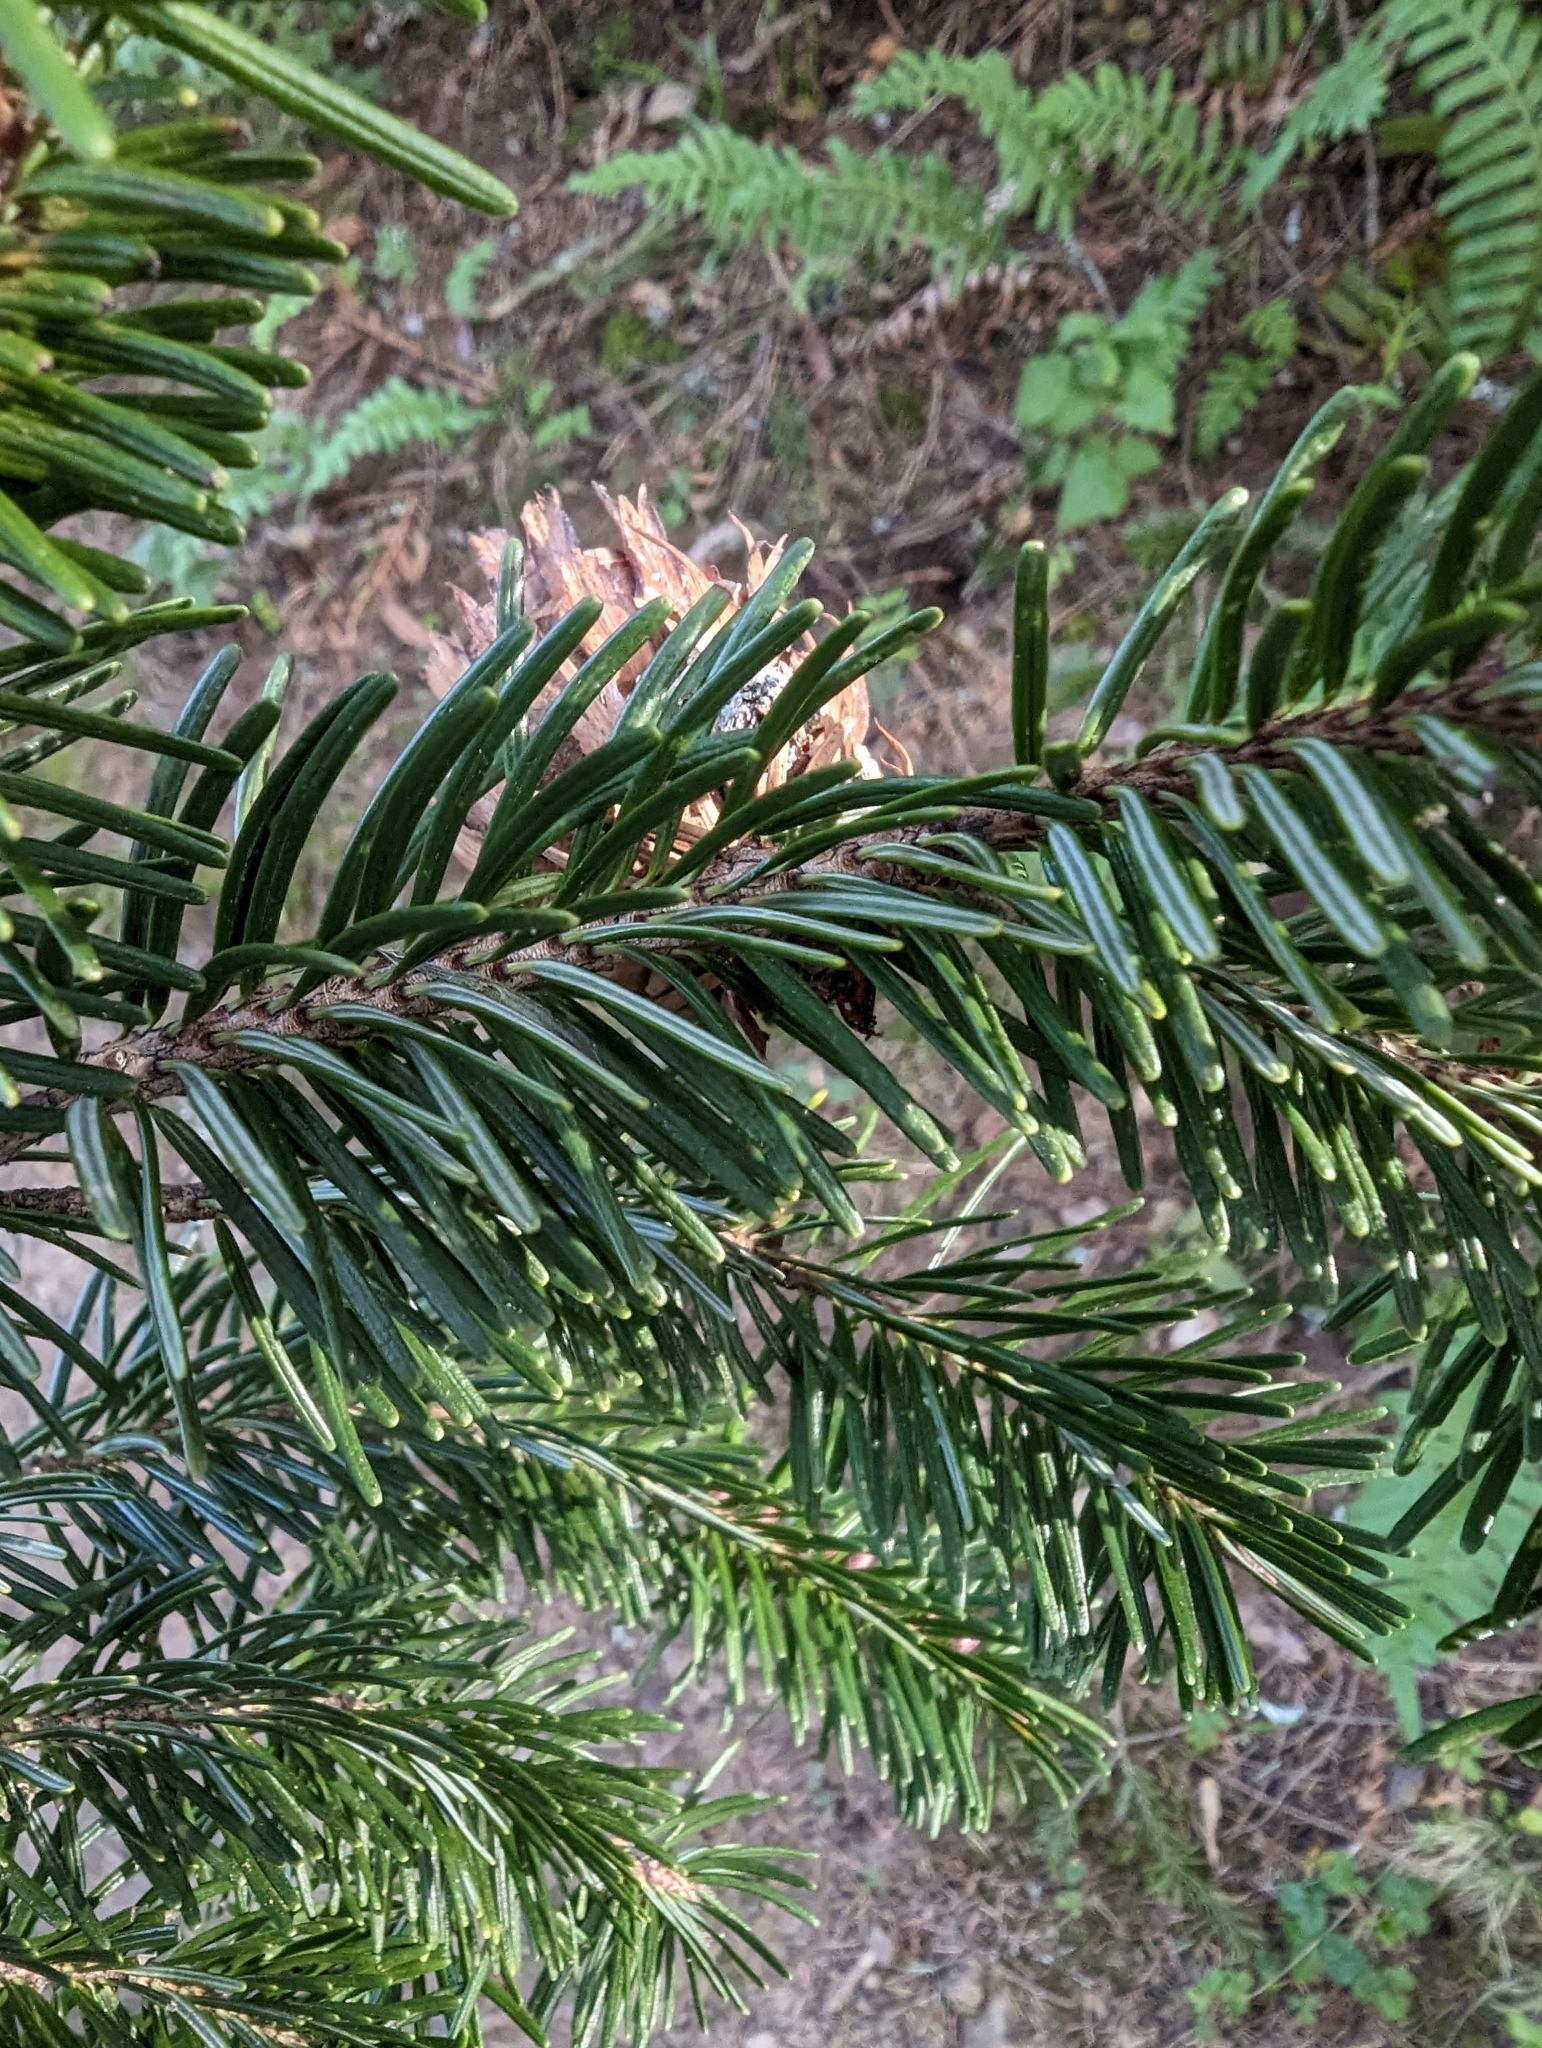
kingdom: Plantae
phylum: Tracheophyta
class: Pinopsida
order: Pinales
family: Pinaceae
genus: Pseudotsuga
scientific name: Pseudotsuga menziesii
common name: Douglas fir
